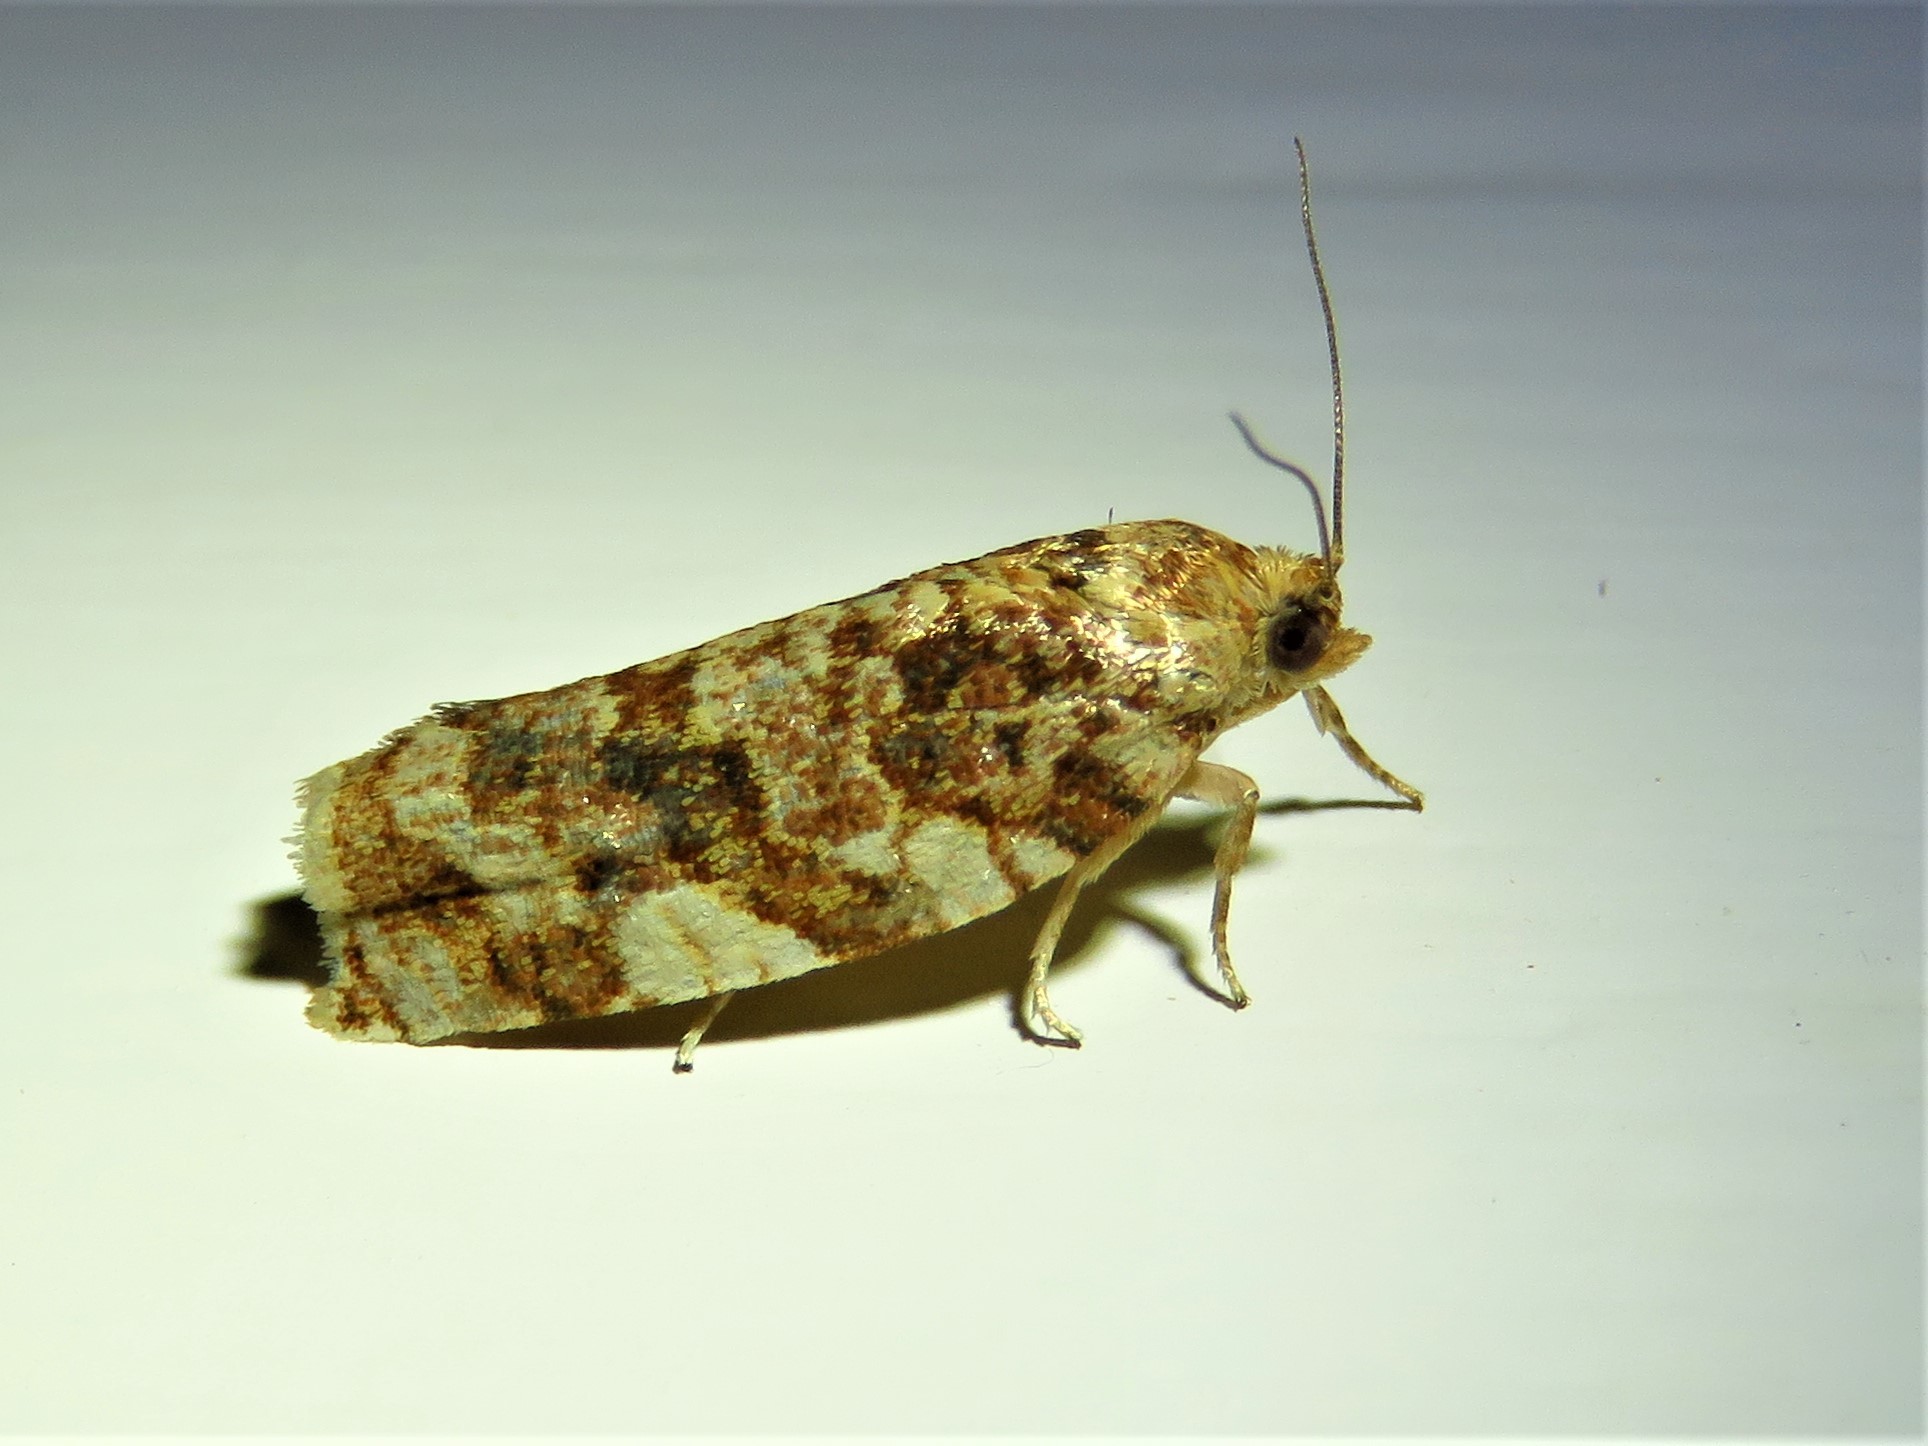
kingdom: Animalia
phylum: Arthropoda
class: Insecta
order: Lepidoptera
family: Tortricidae
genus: Archips
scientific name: Archips argyrospila
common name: Fruit-tree leafroller moth
